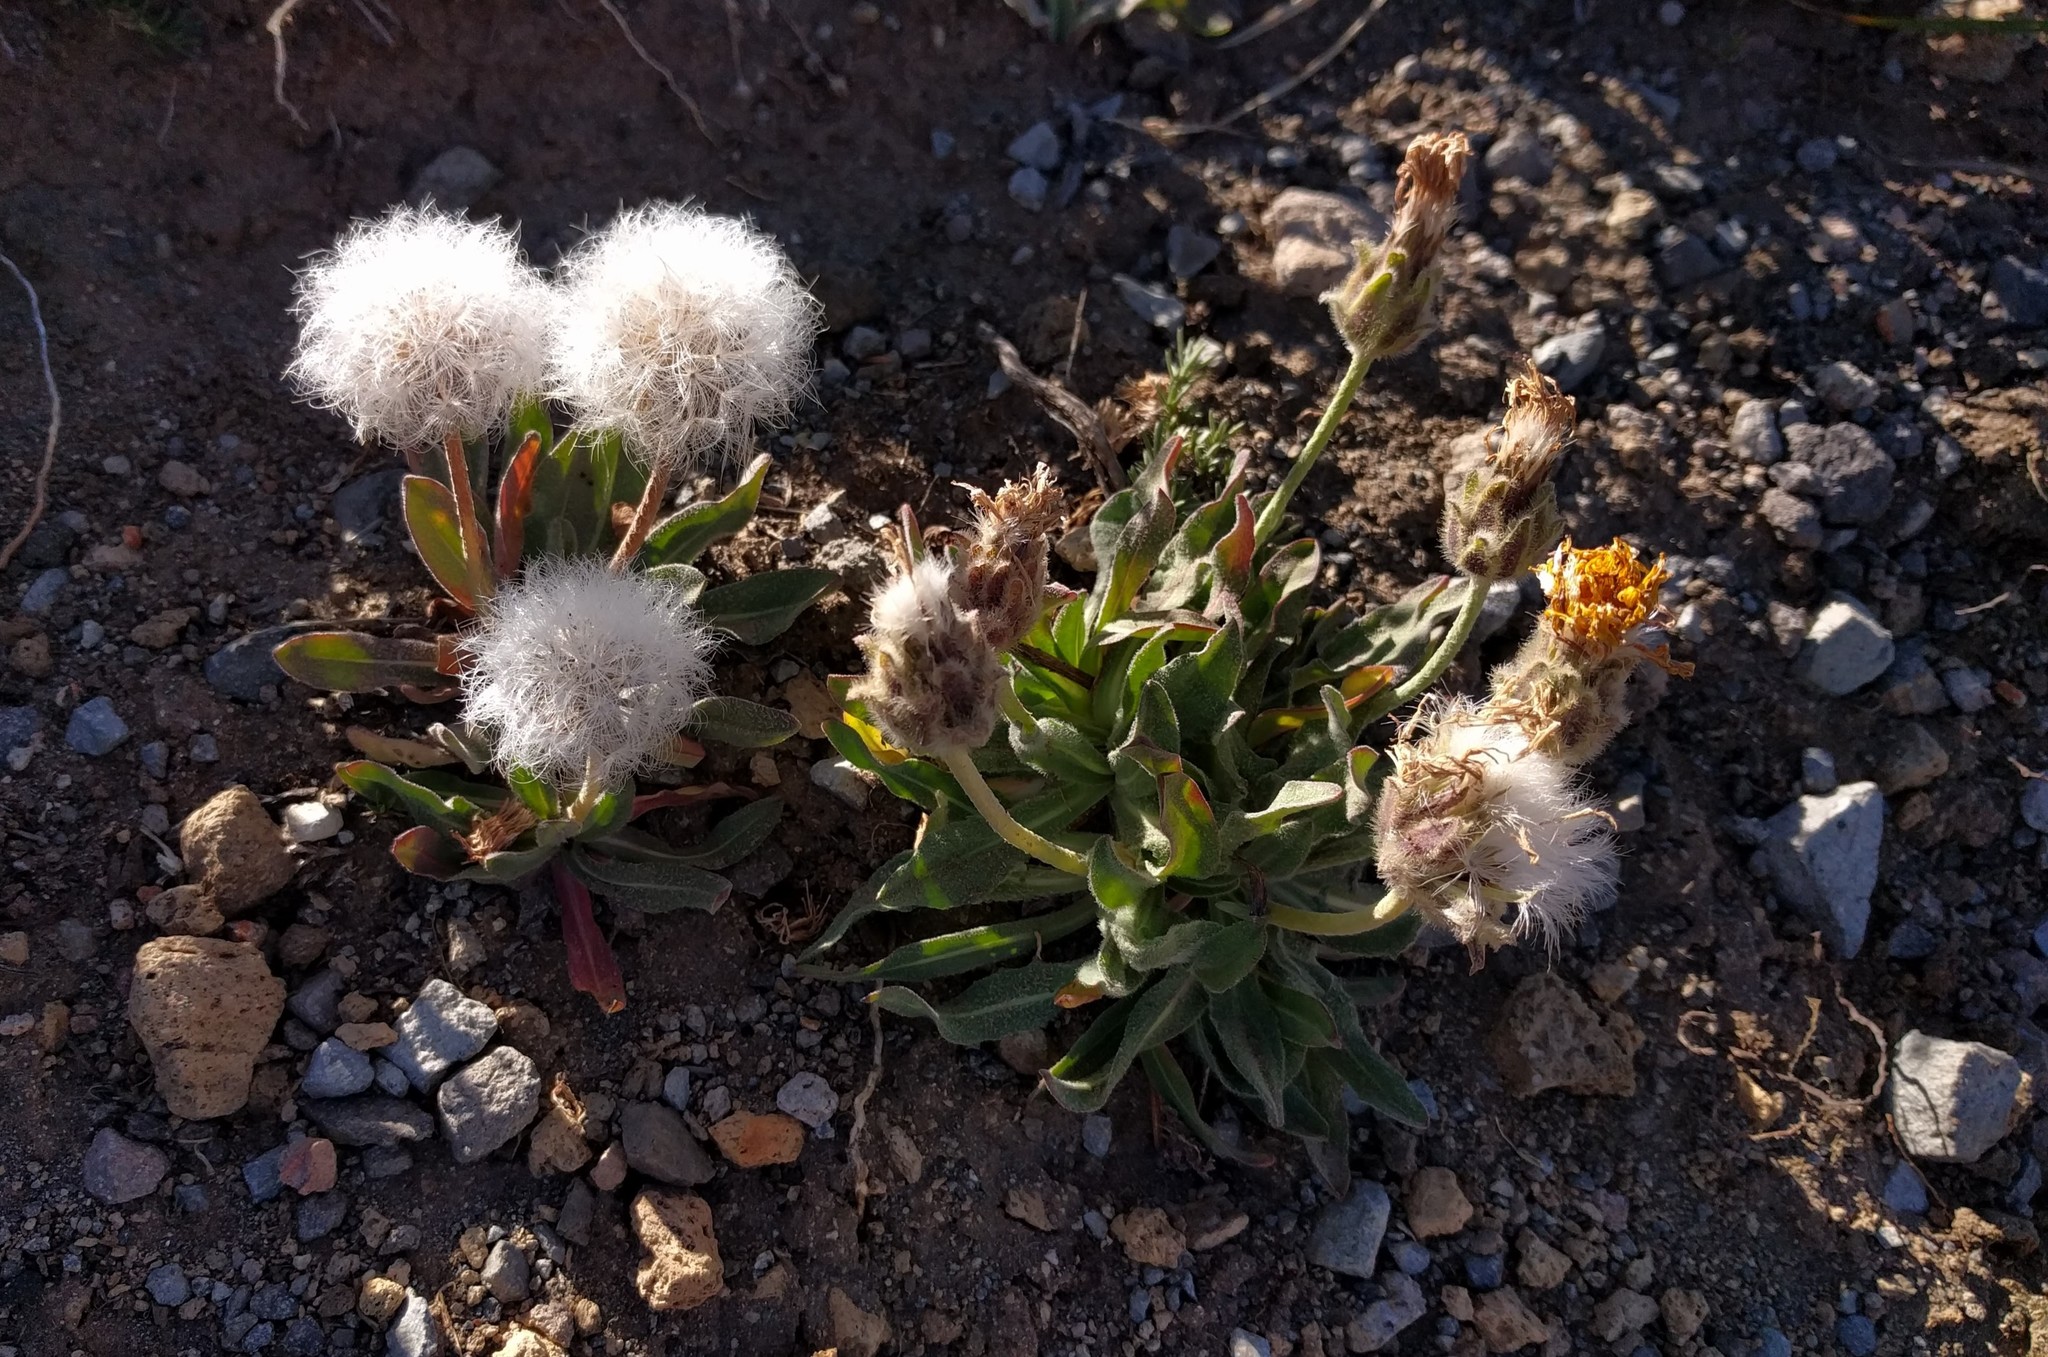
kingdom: Plantae
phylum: Tracheophyta
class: Magnoliopsida
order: Asterales
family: Asteraceae
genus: Agoseris
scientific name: Agoseris glauca
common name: Prairie agoseris
